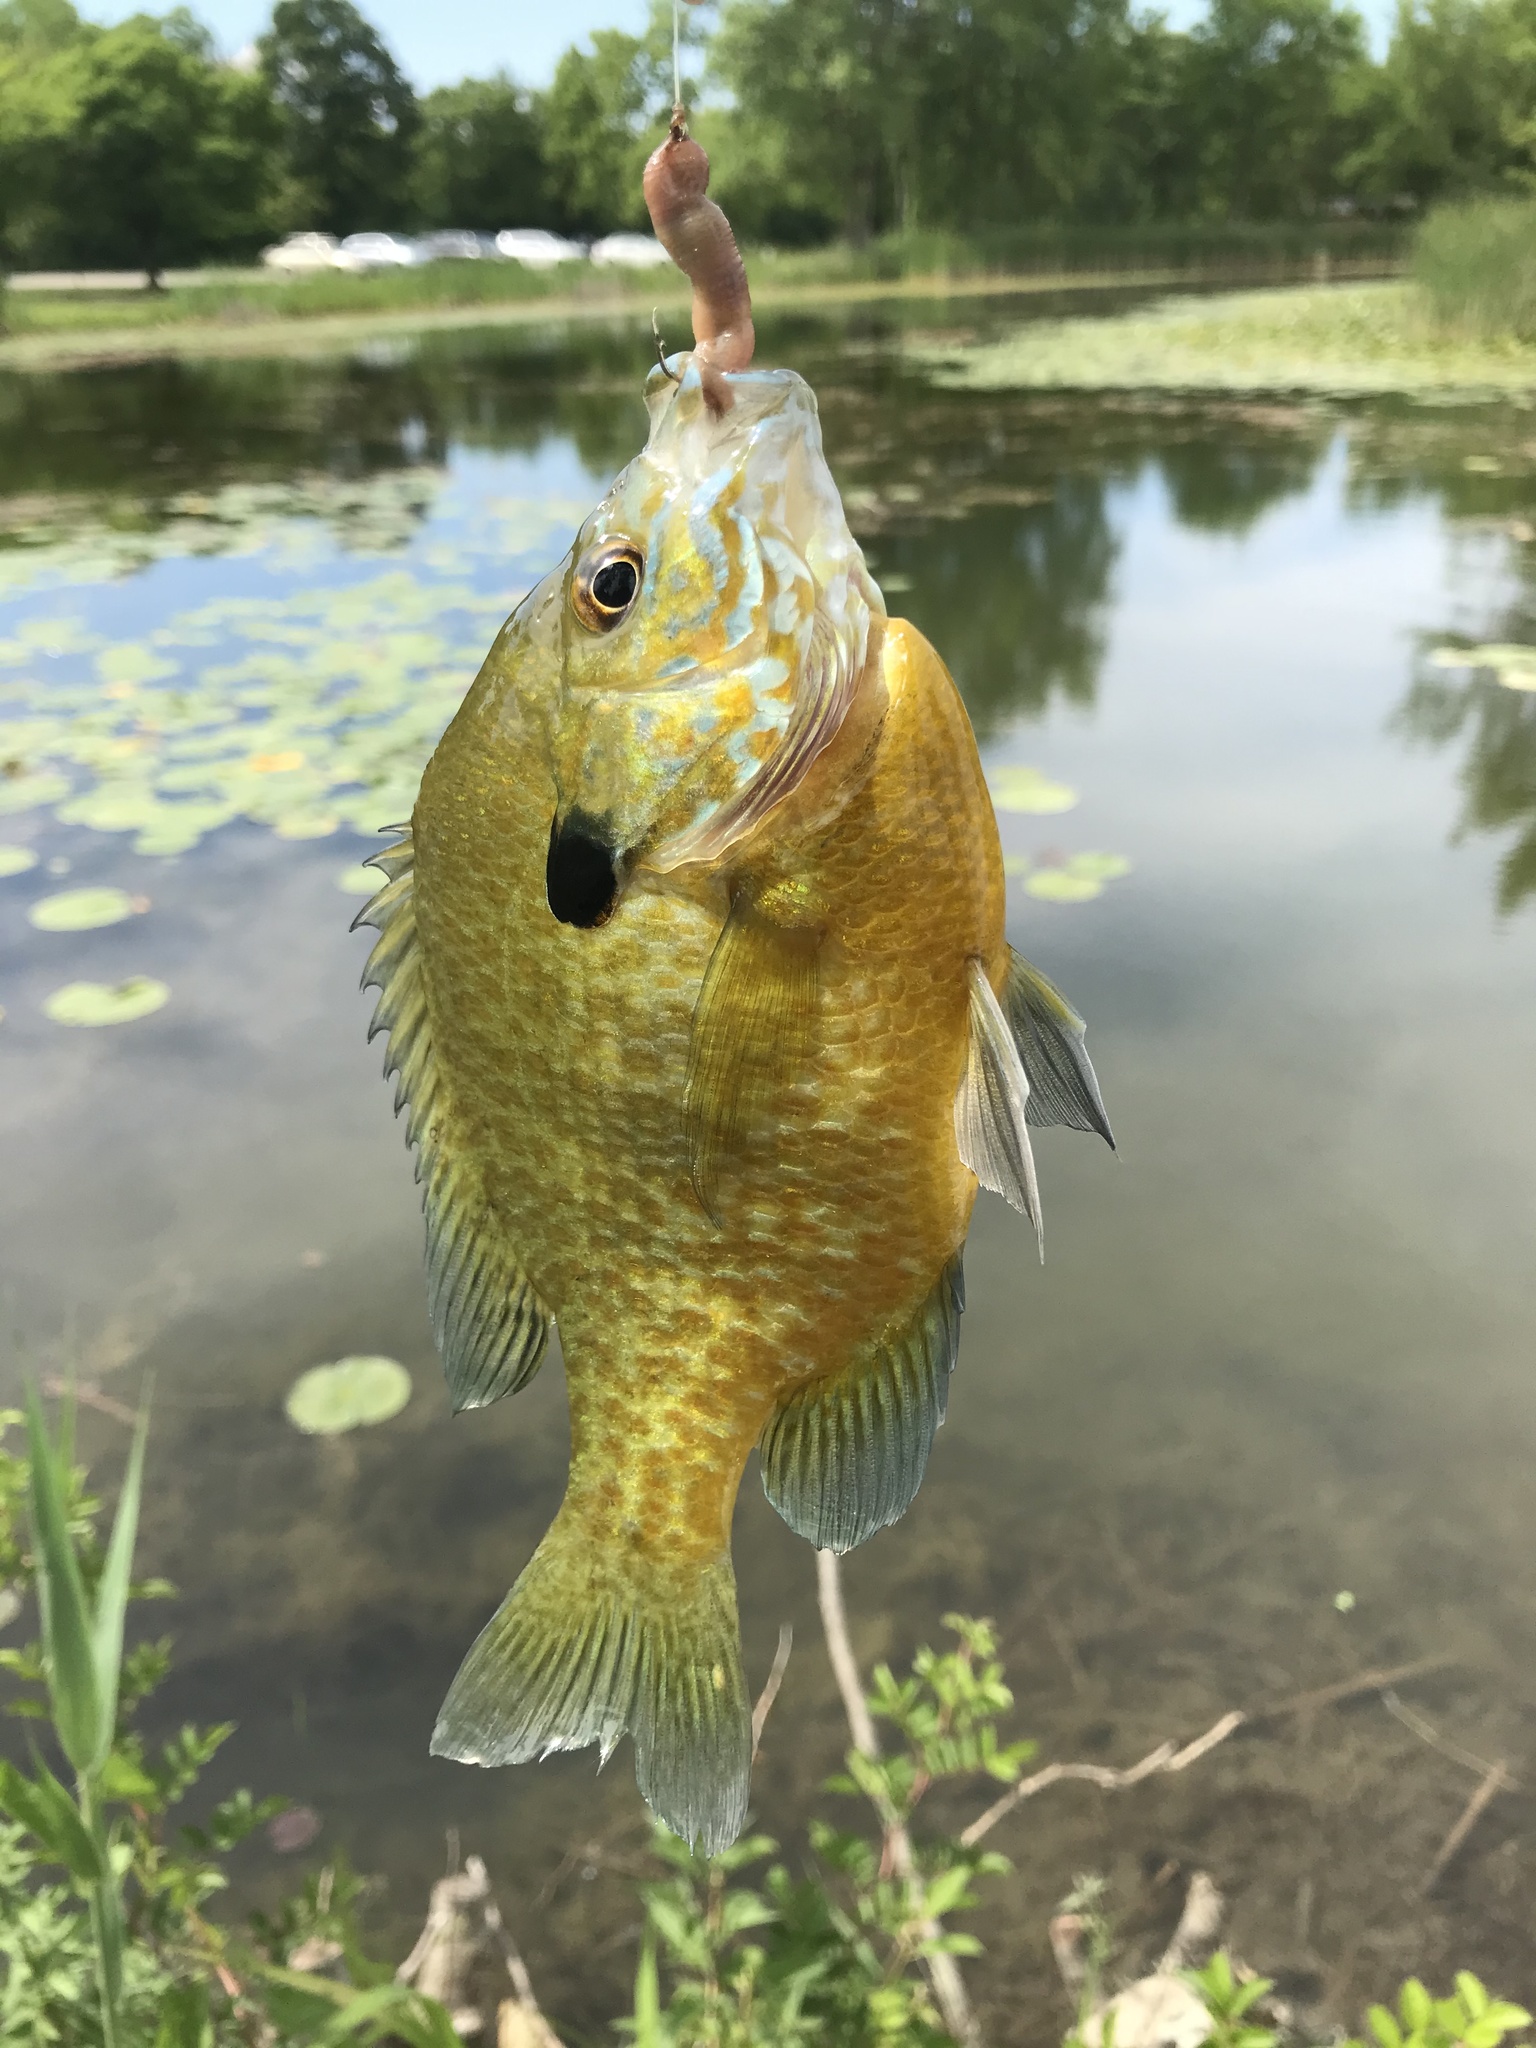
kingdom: Animalia
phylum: Chordata
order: Perciformes
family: Centrarchidae
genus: Lepomis
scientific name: Lepomis
